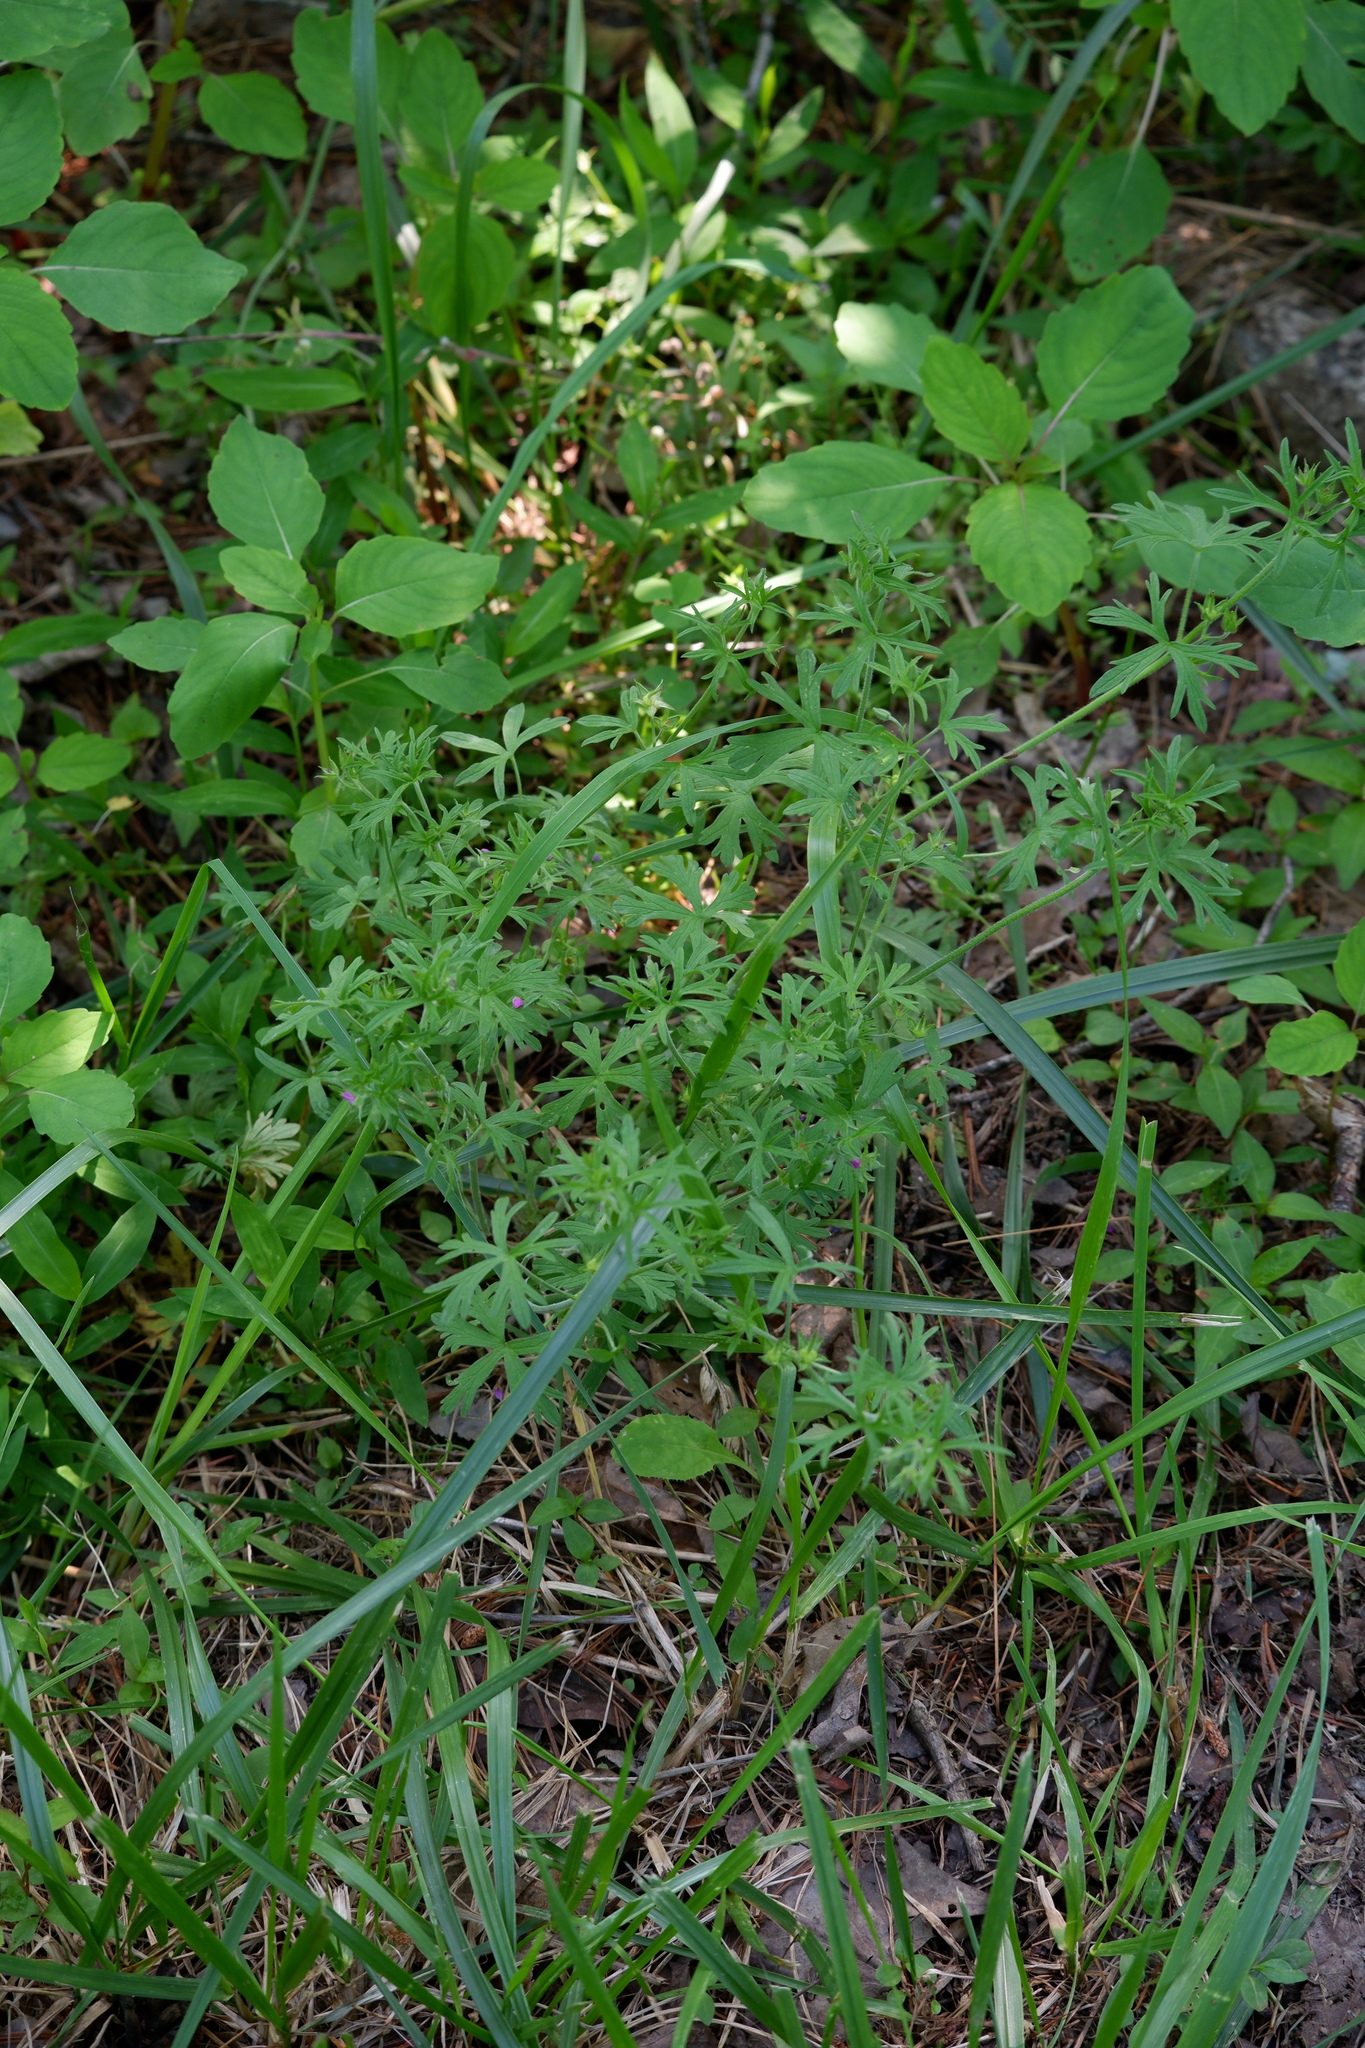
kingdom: Plantae
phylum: Tracheophyta
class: Magnoliopsida
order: Geraniales
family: Geraniaceae
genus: Geranium
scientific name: Geranium dissectum
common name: Cut-leaved crane's-bill
